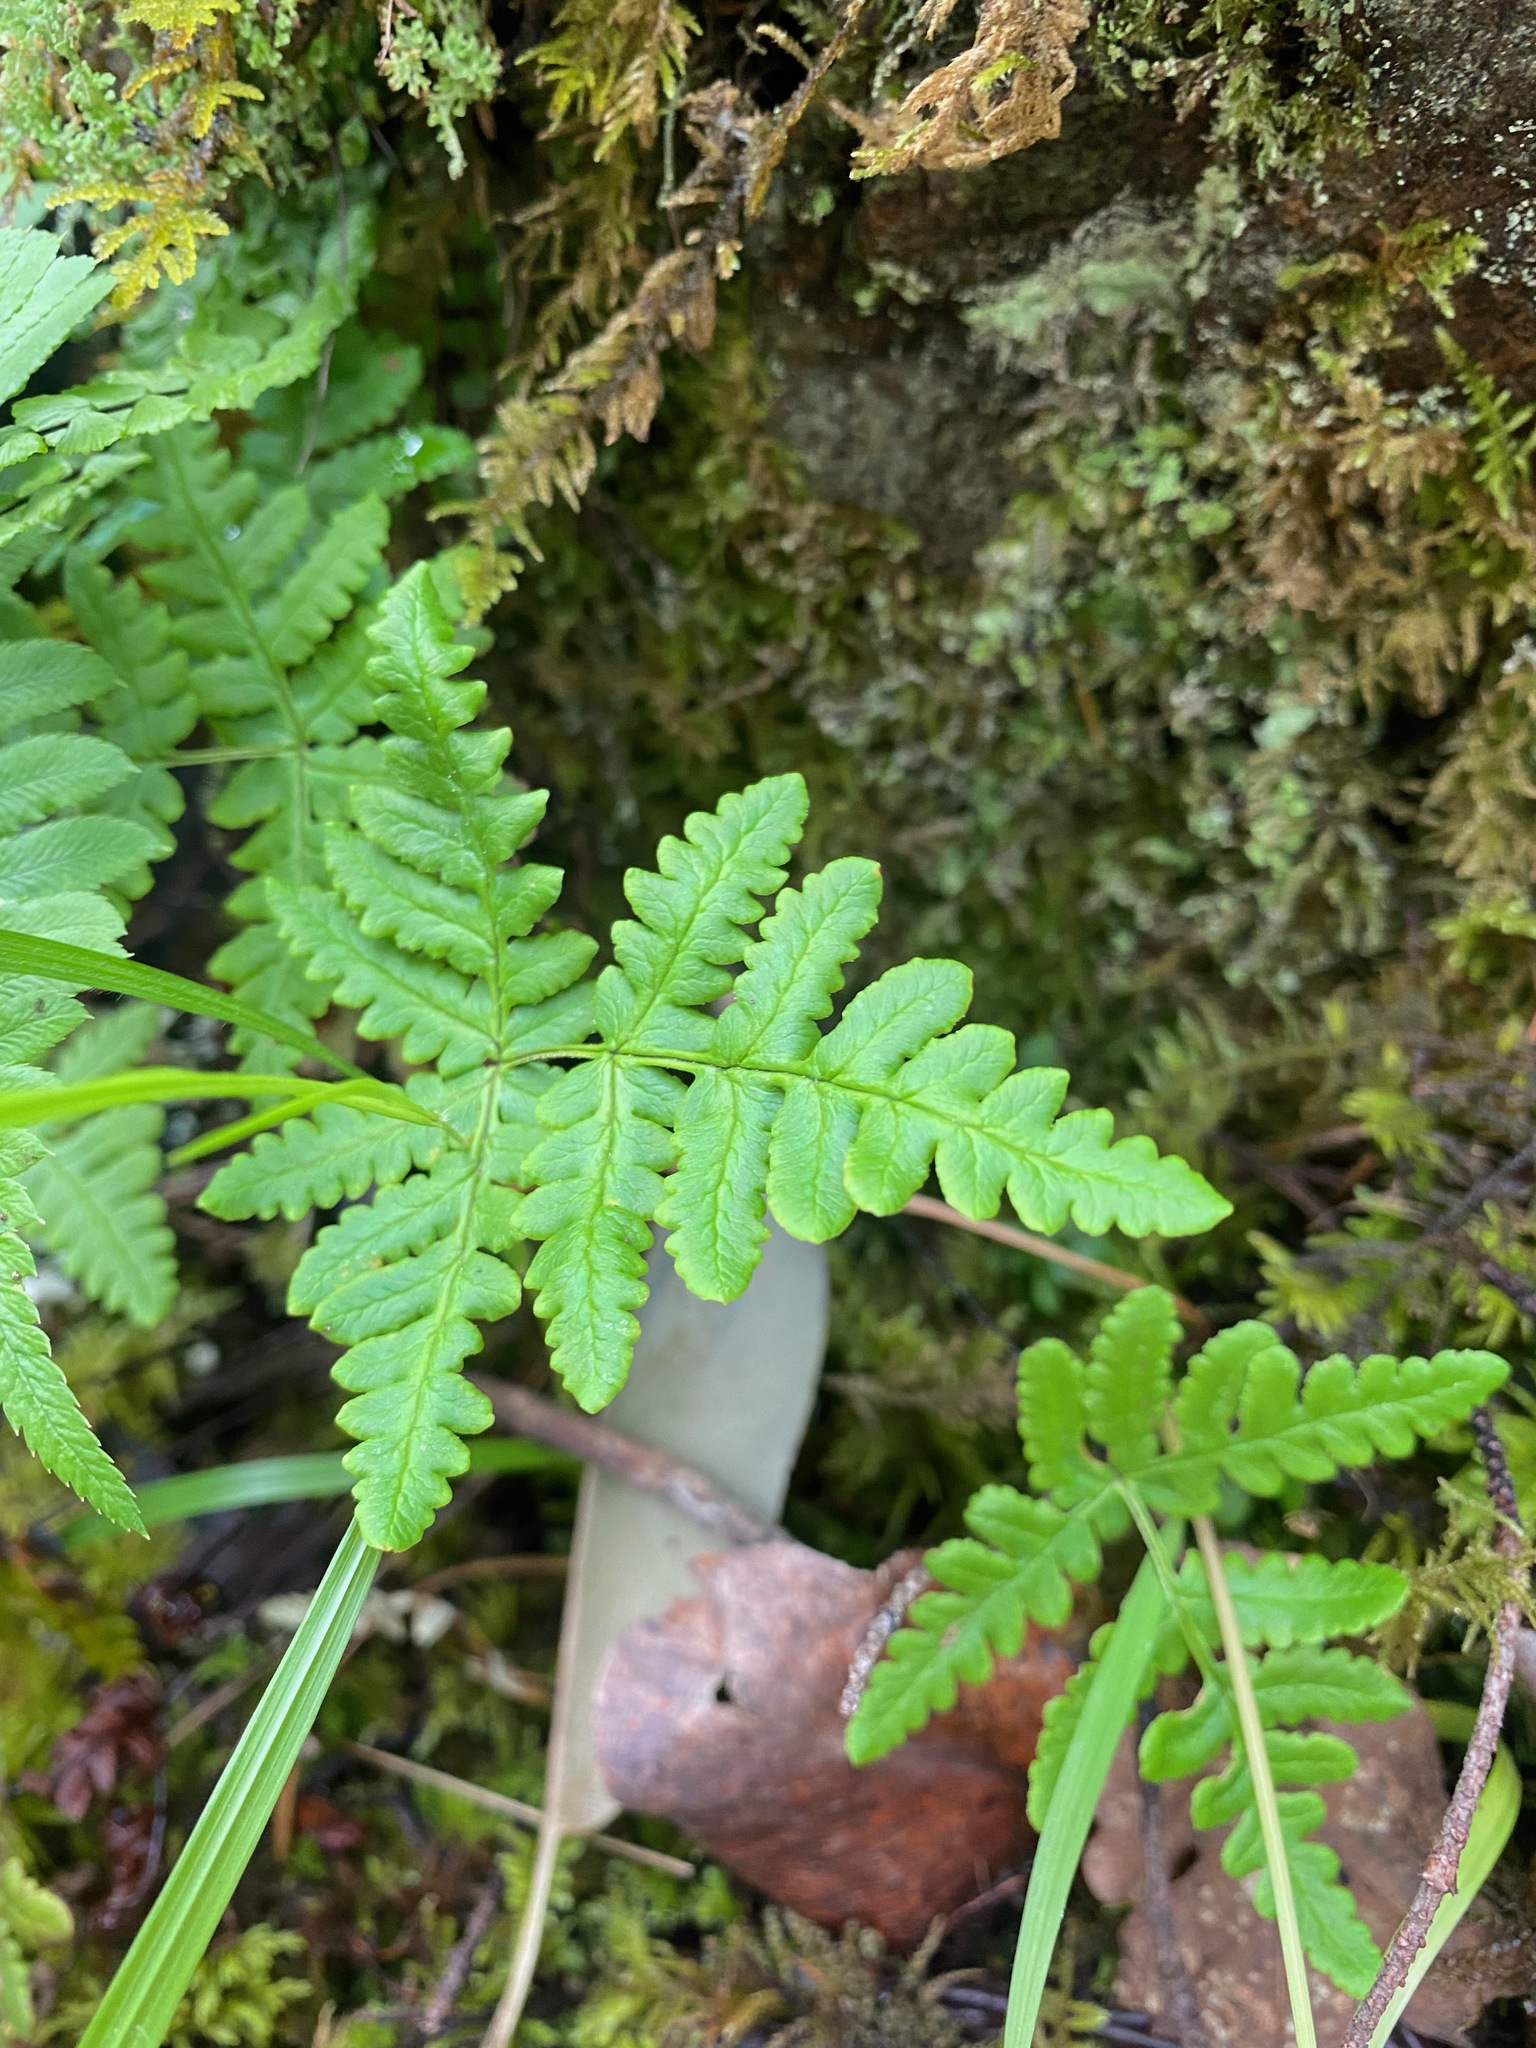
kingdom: Plantae
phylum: Tracheophyta
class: Polypodiopsida
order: Polypodiales
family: Pteridaceae
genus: Pentagramma
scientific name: Pentagramma triangularis
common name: Gold fern
